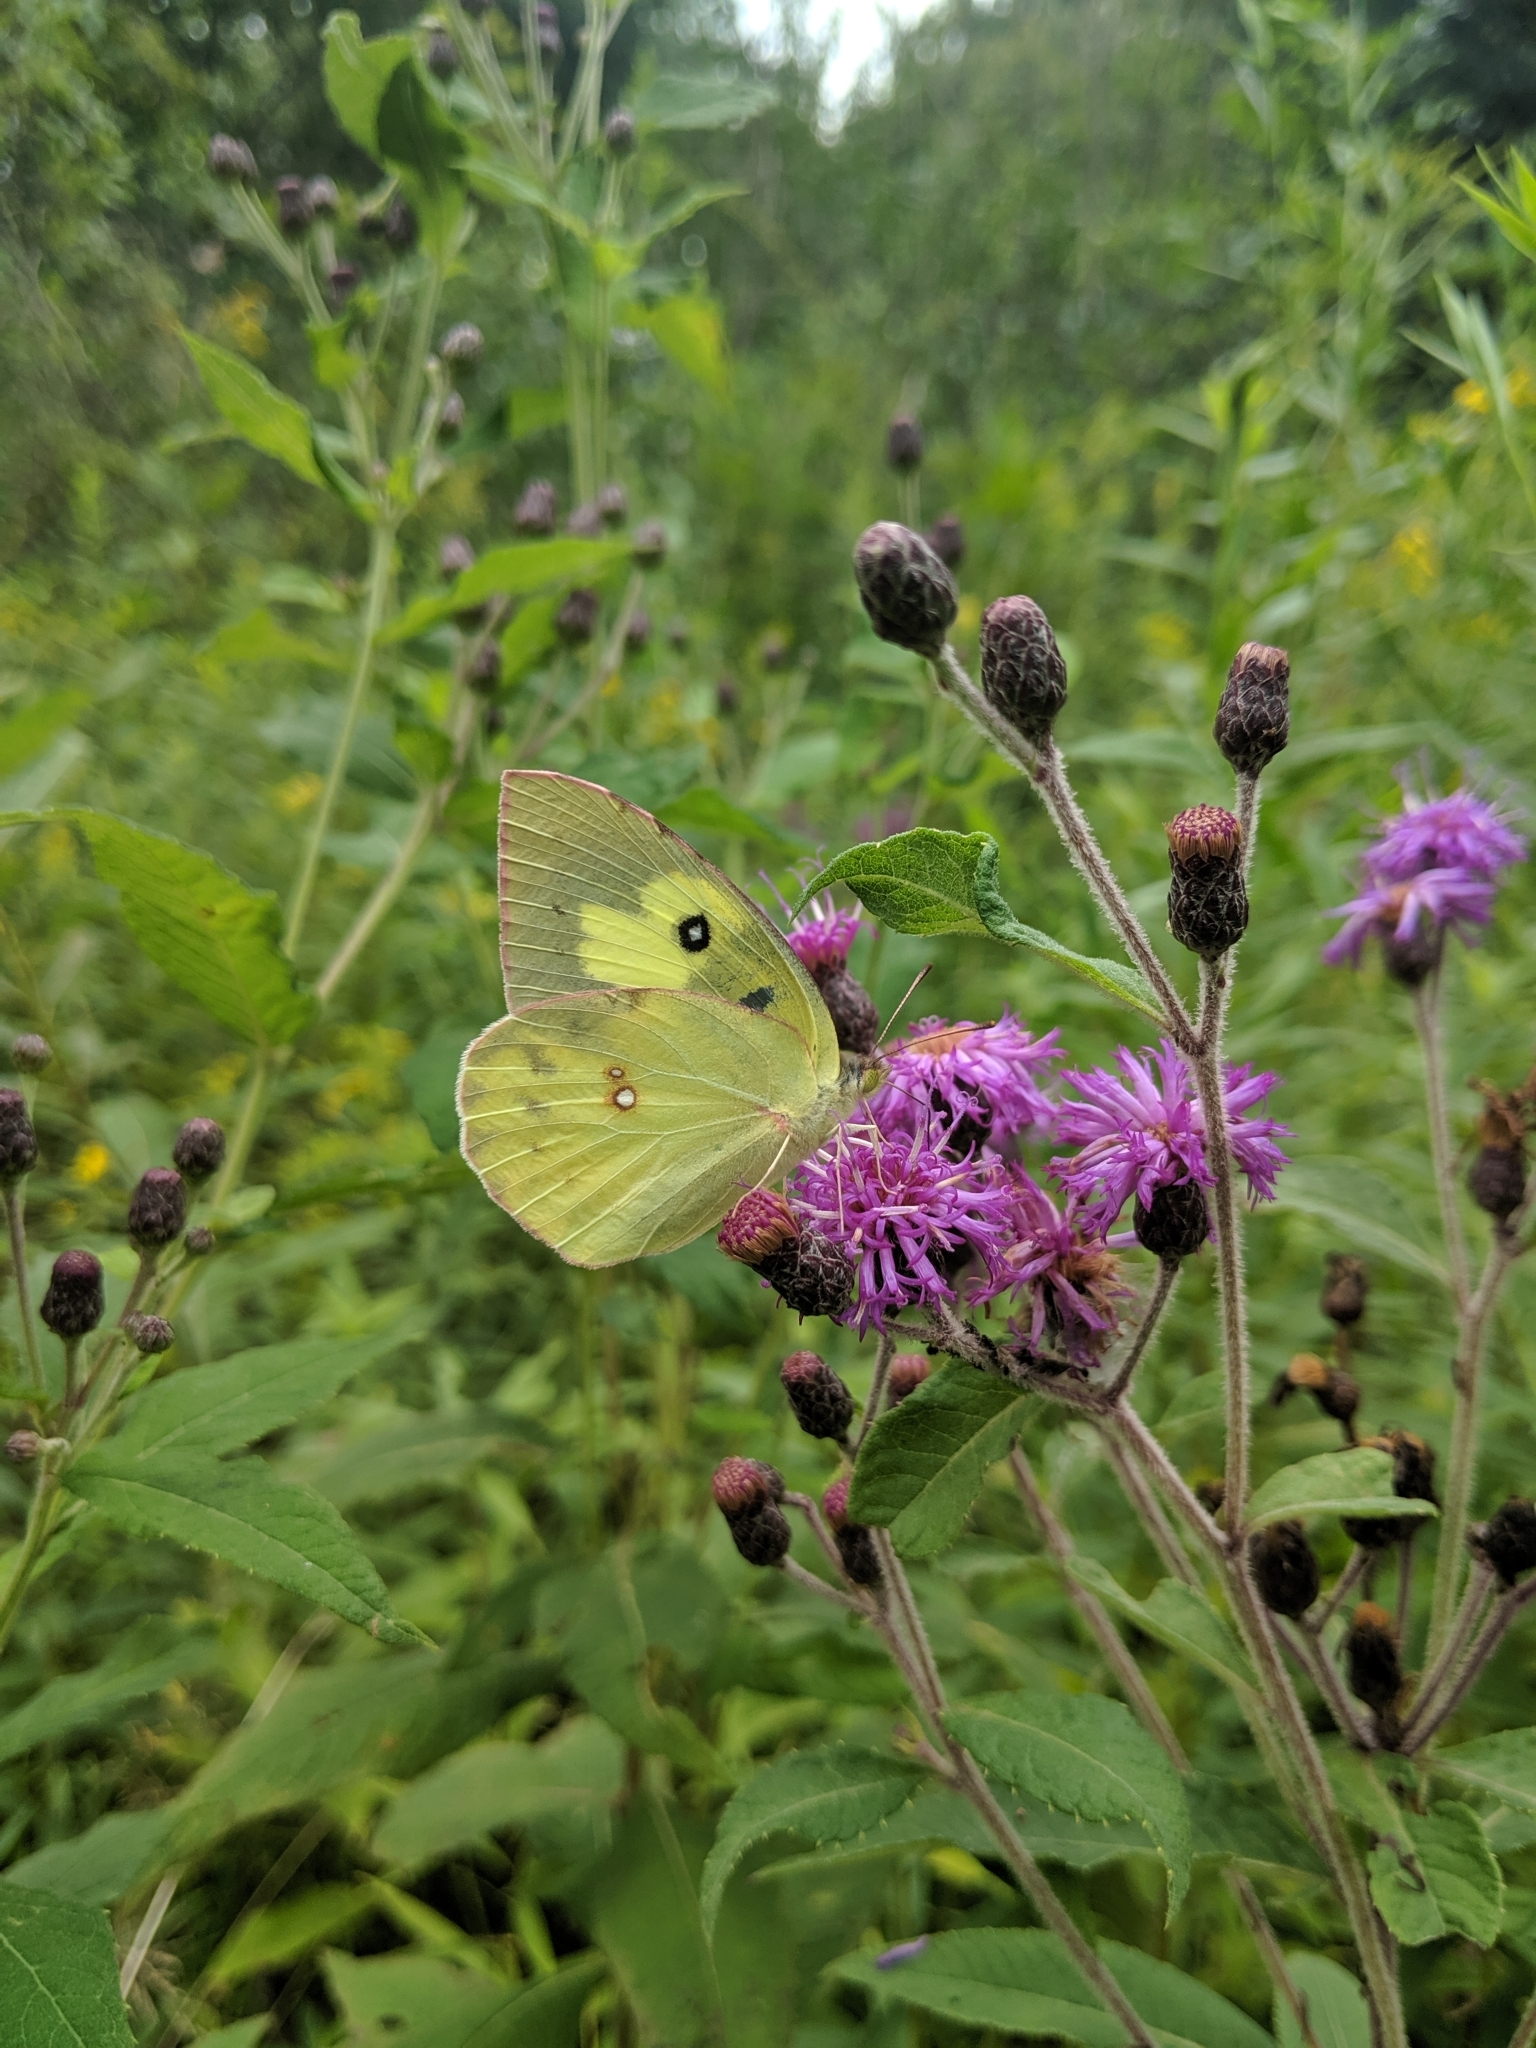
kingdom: Animalia
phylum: Arthropoda
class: Insecta
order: Lepidoptera
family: Pieridae
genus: Zerene
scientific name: Zerene cesonia
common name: Southern dogface
